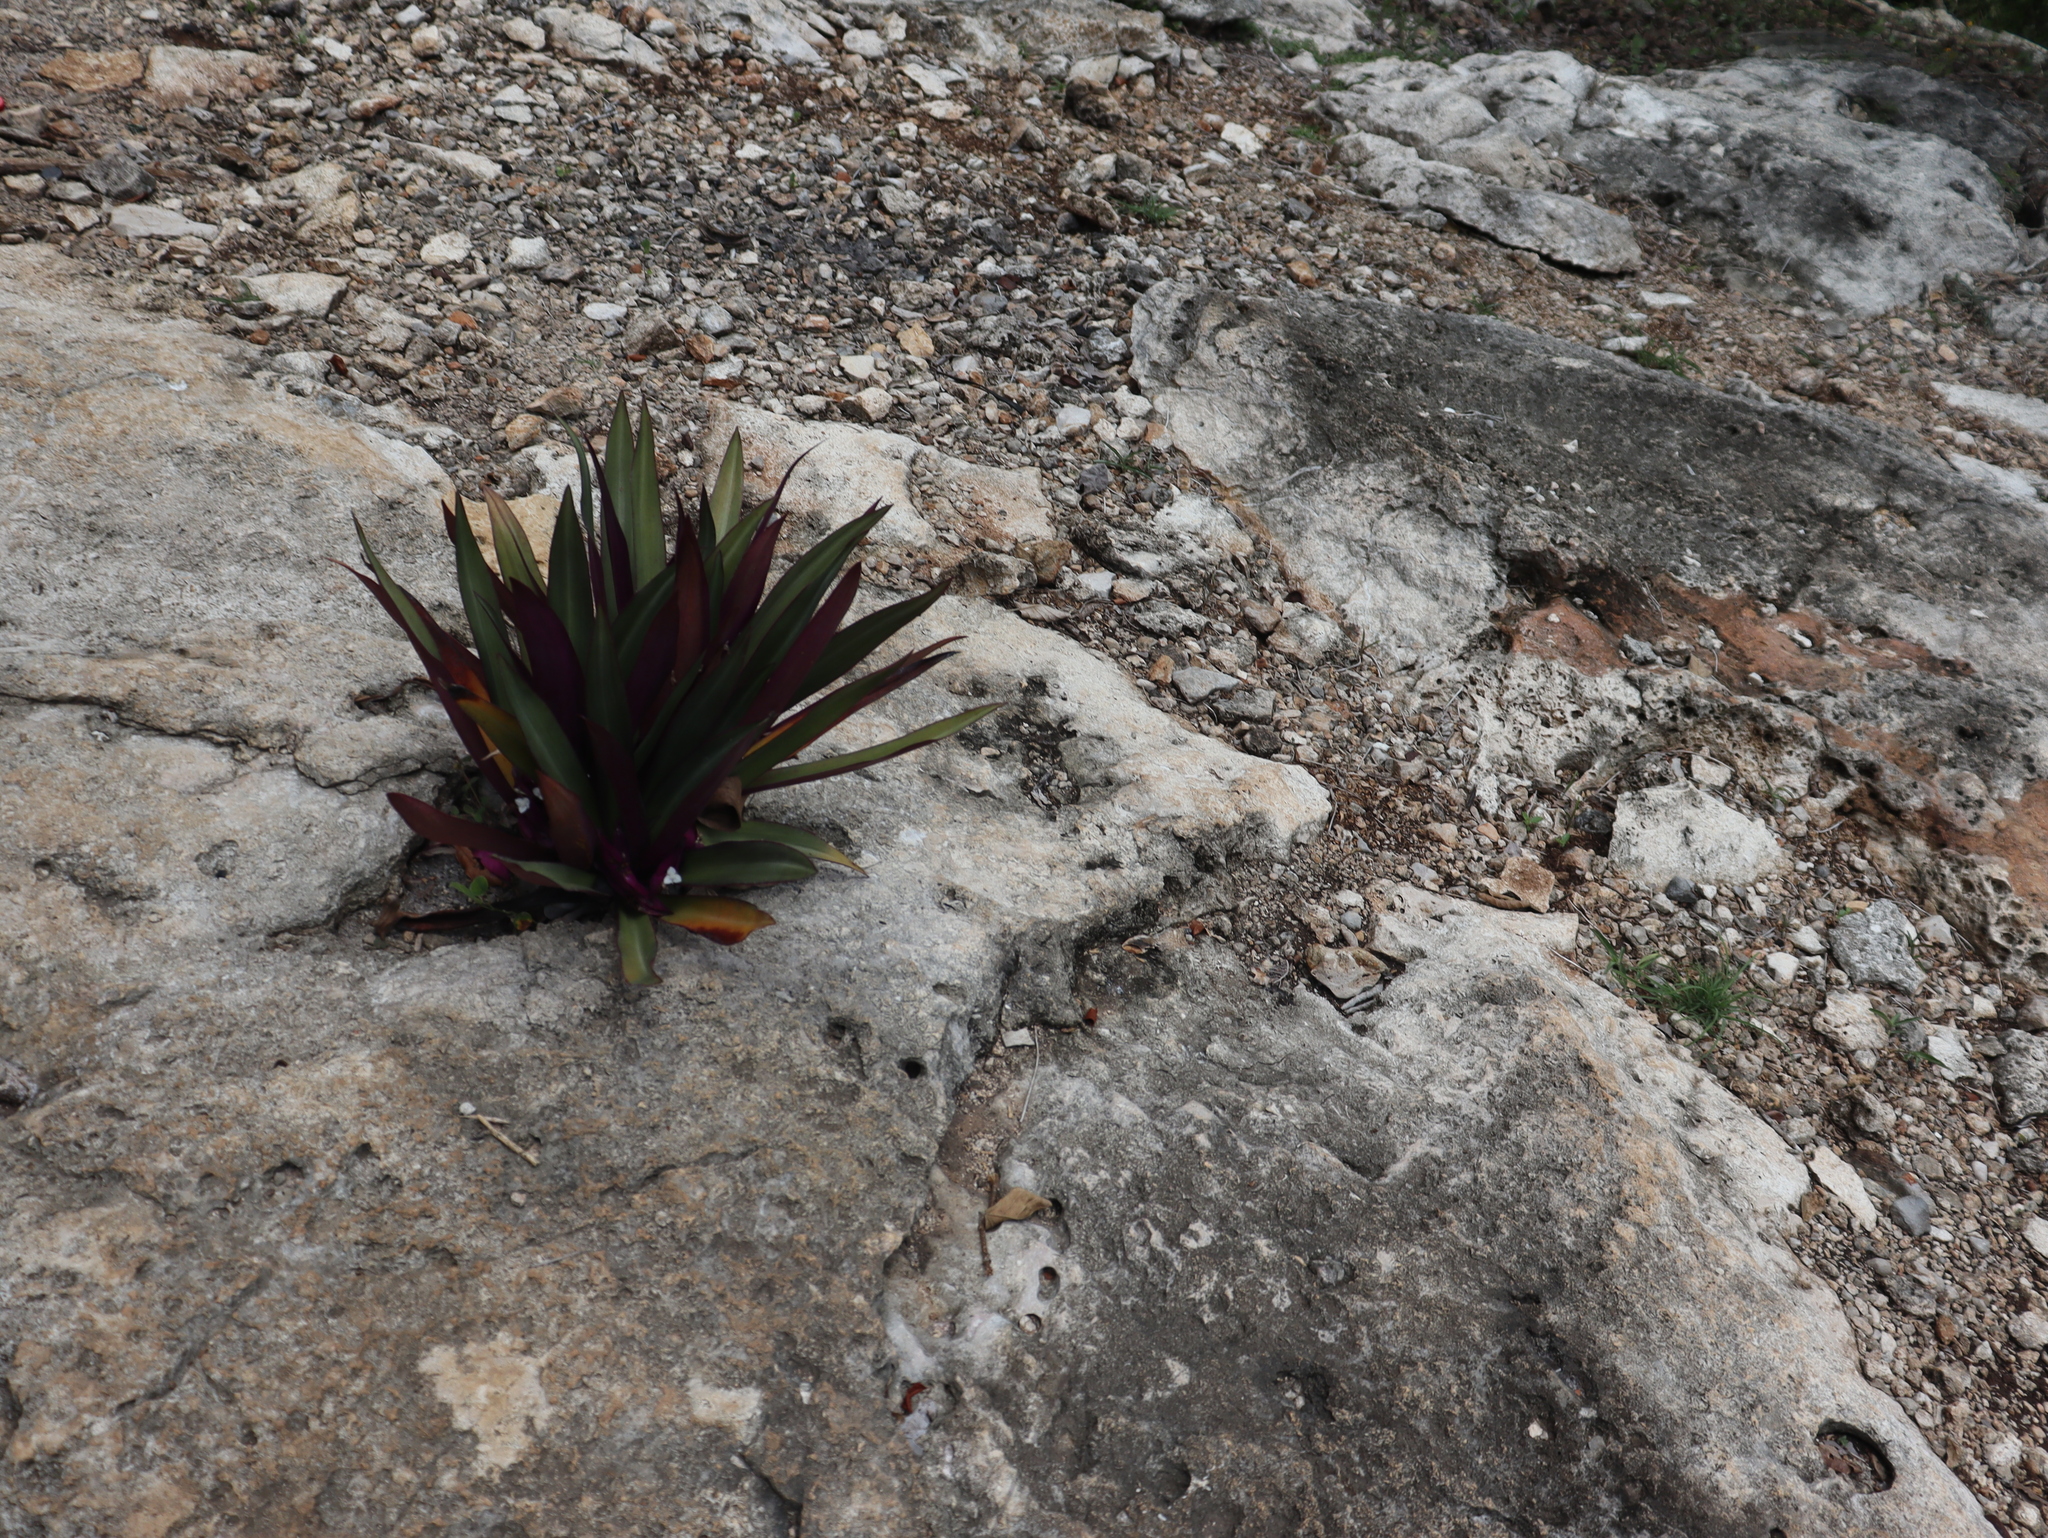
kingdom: Plantae
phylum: Tracheophyta
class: Liliopsida
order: Commelinales
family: Commelinaceae
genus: Tradescantia
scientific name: Tradescantia spathacea
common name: Boatlily
